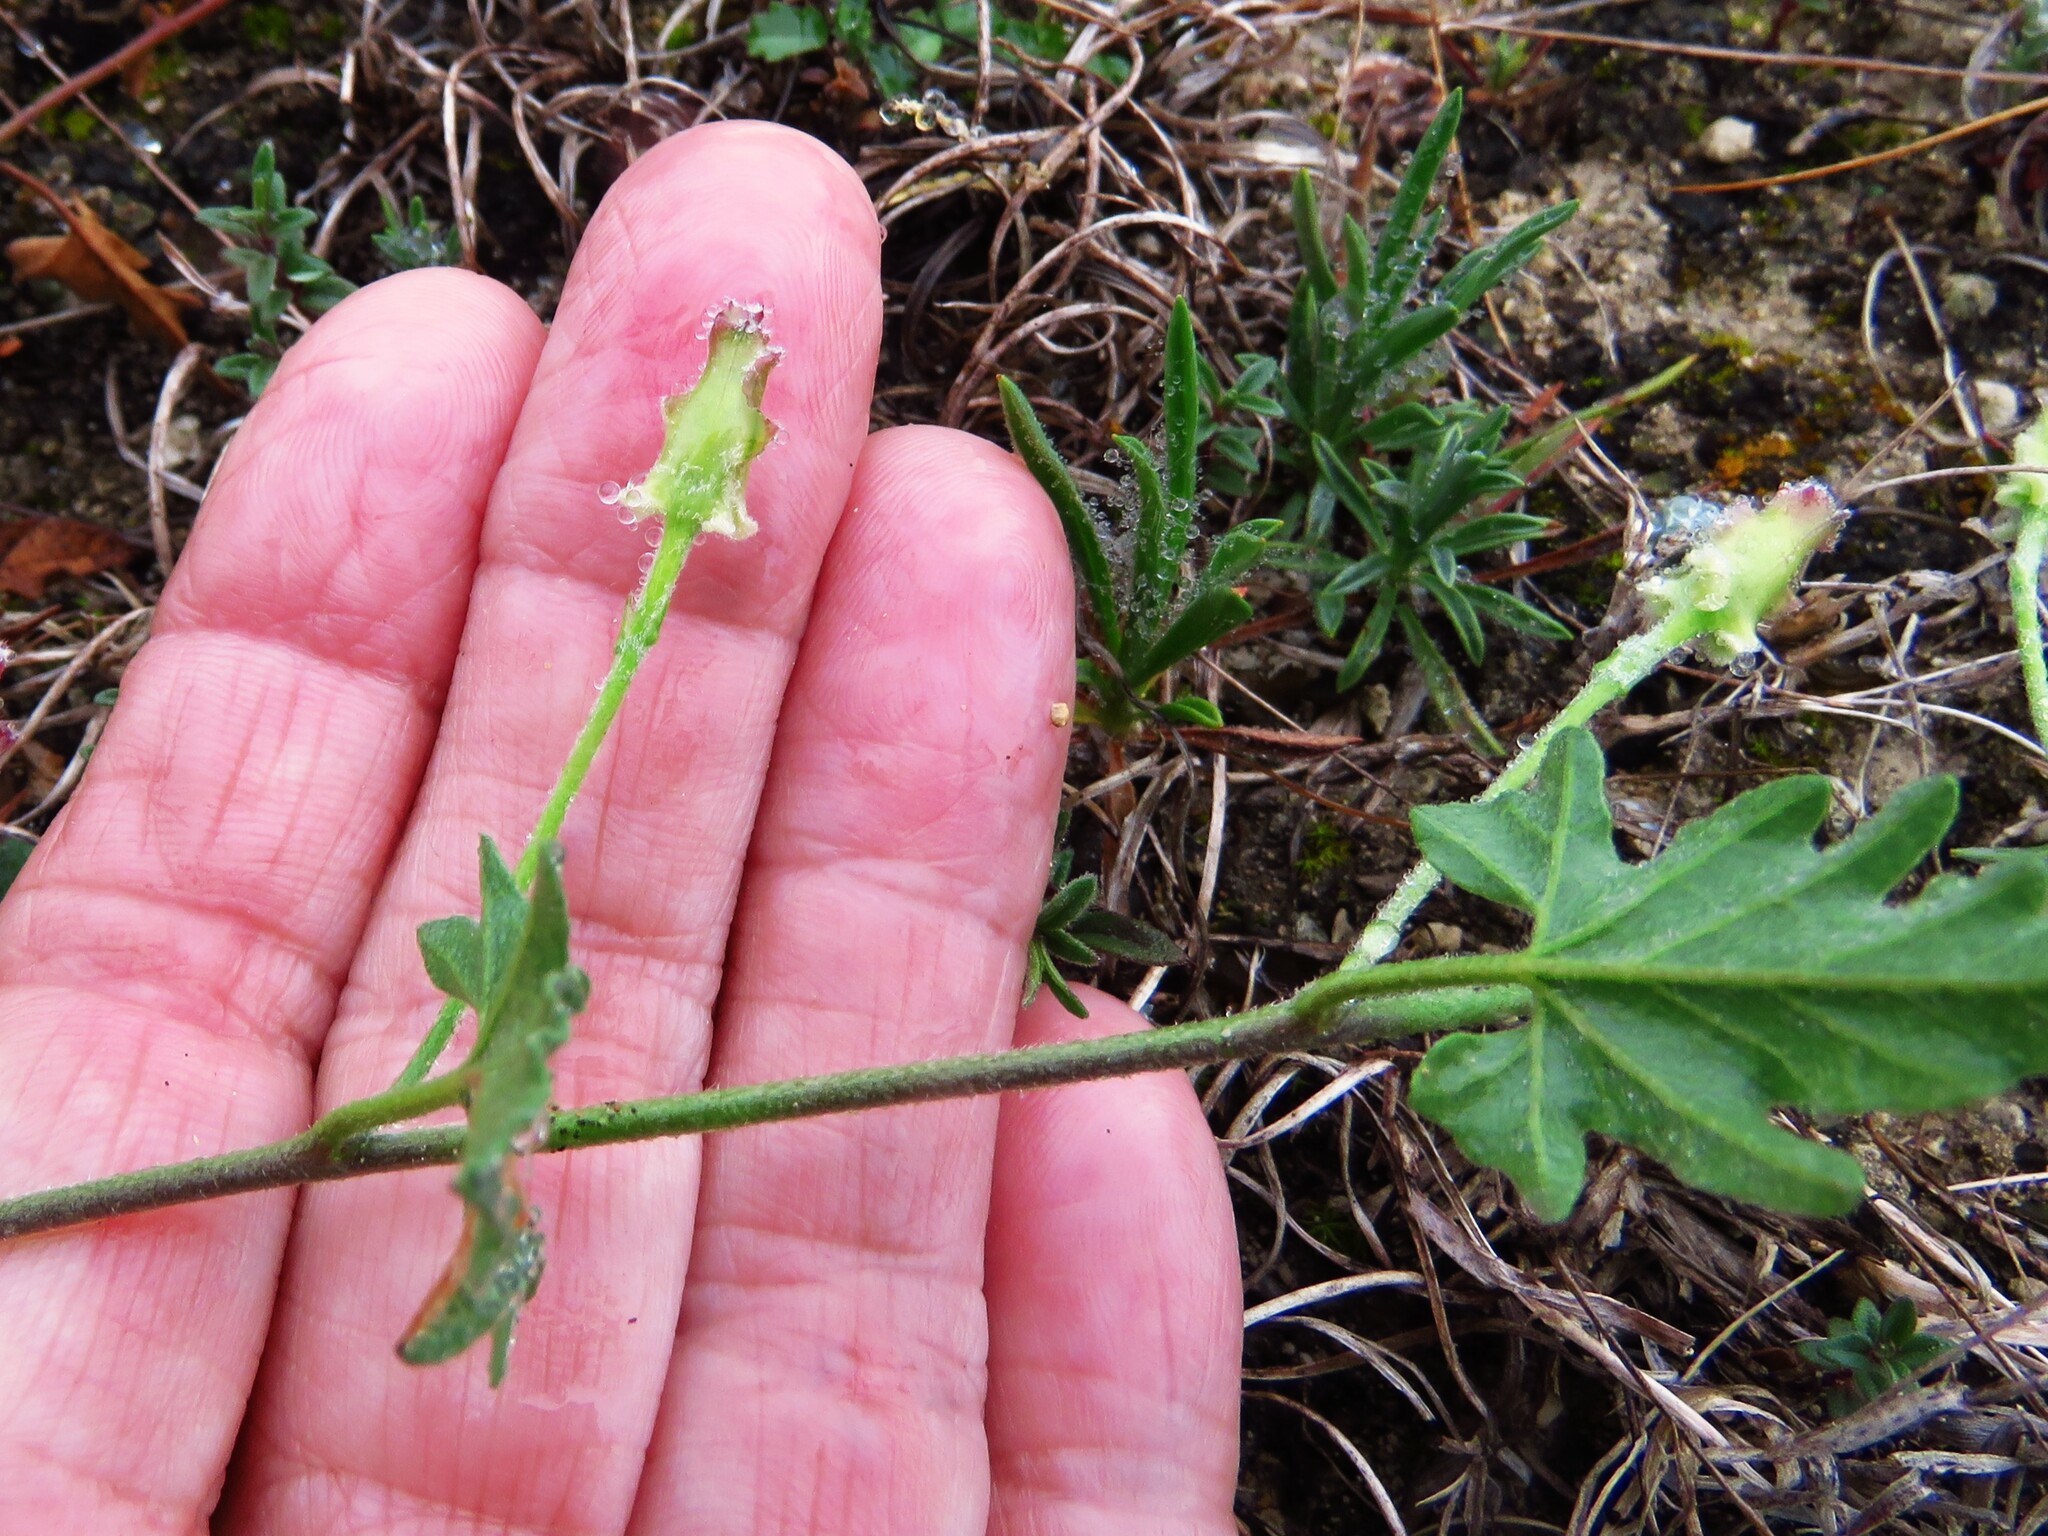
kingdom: Plantae
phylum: Tracheophyta
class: Magnoliopsida
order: Solanales
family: Convolvulaceae
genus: Convolvulus
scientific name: Convolvulus equitans
